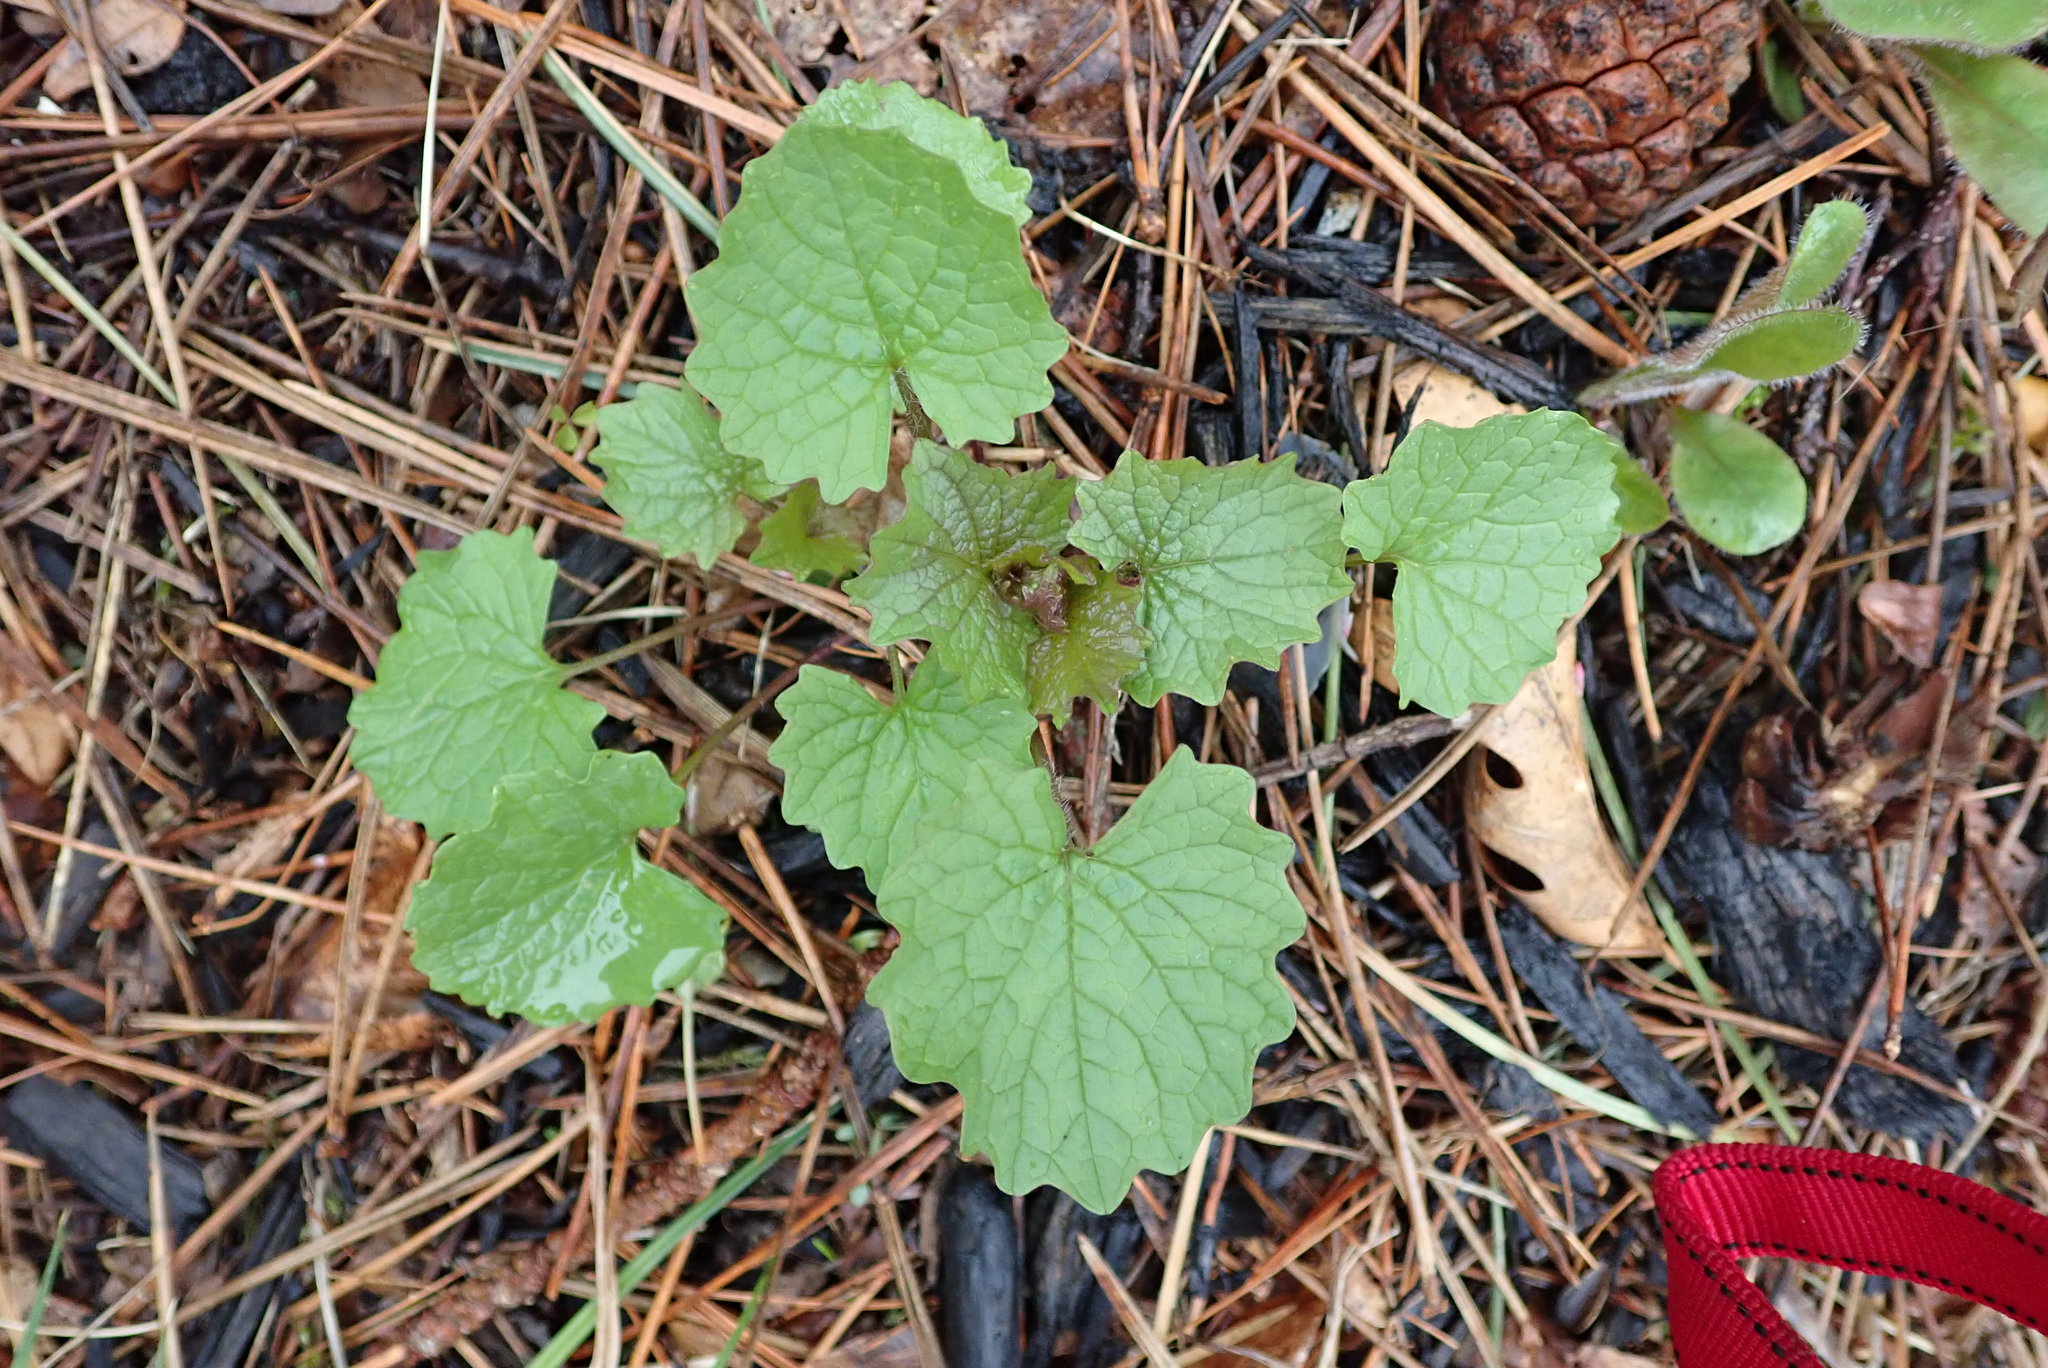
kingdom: Plantae
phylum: Tracheophyta
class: Magnoliopsida
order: Brassicales
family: Brassicaceae
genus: Alliaria
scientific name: Alliaria petiolata
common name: Garlic mustard
